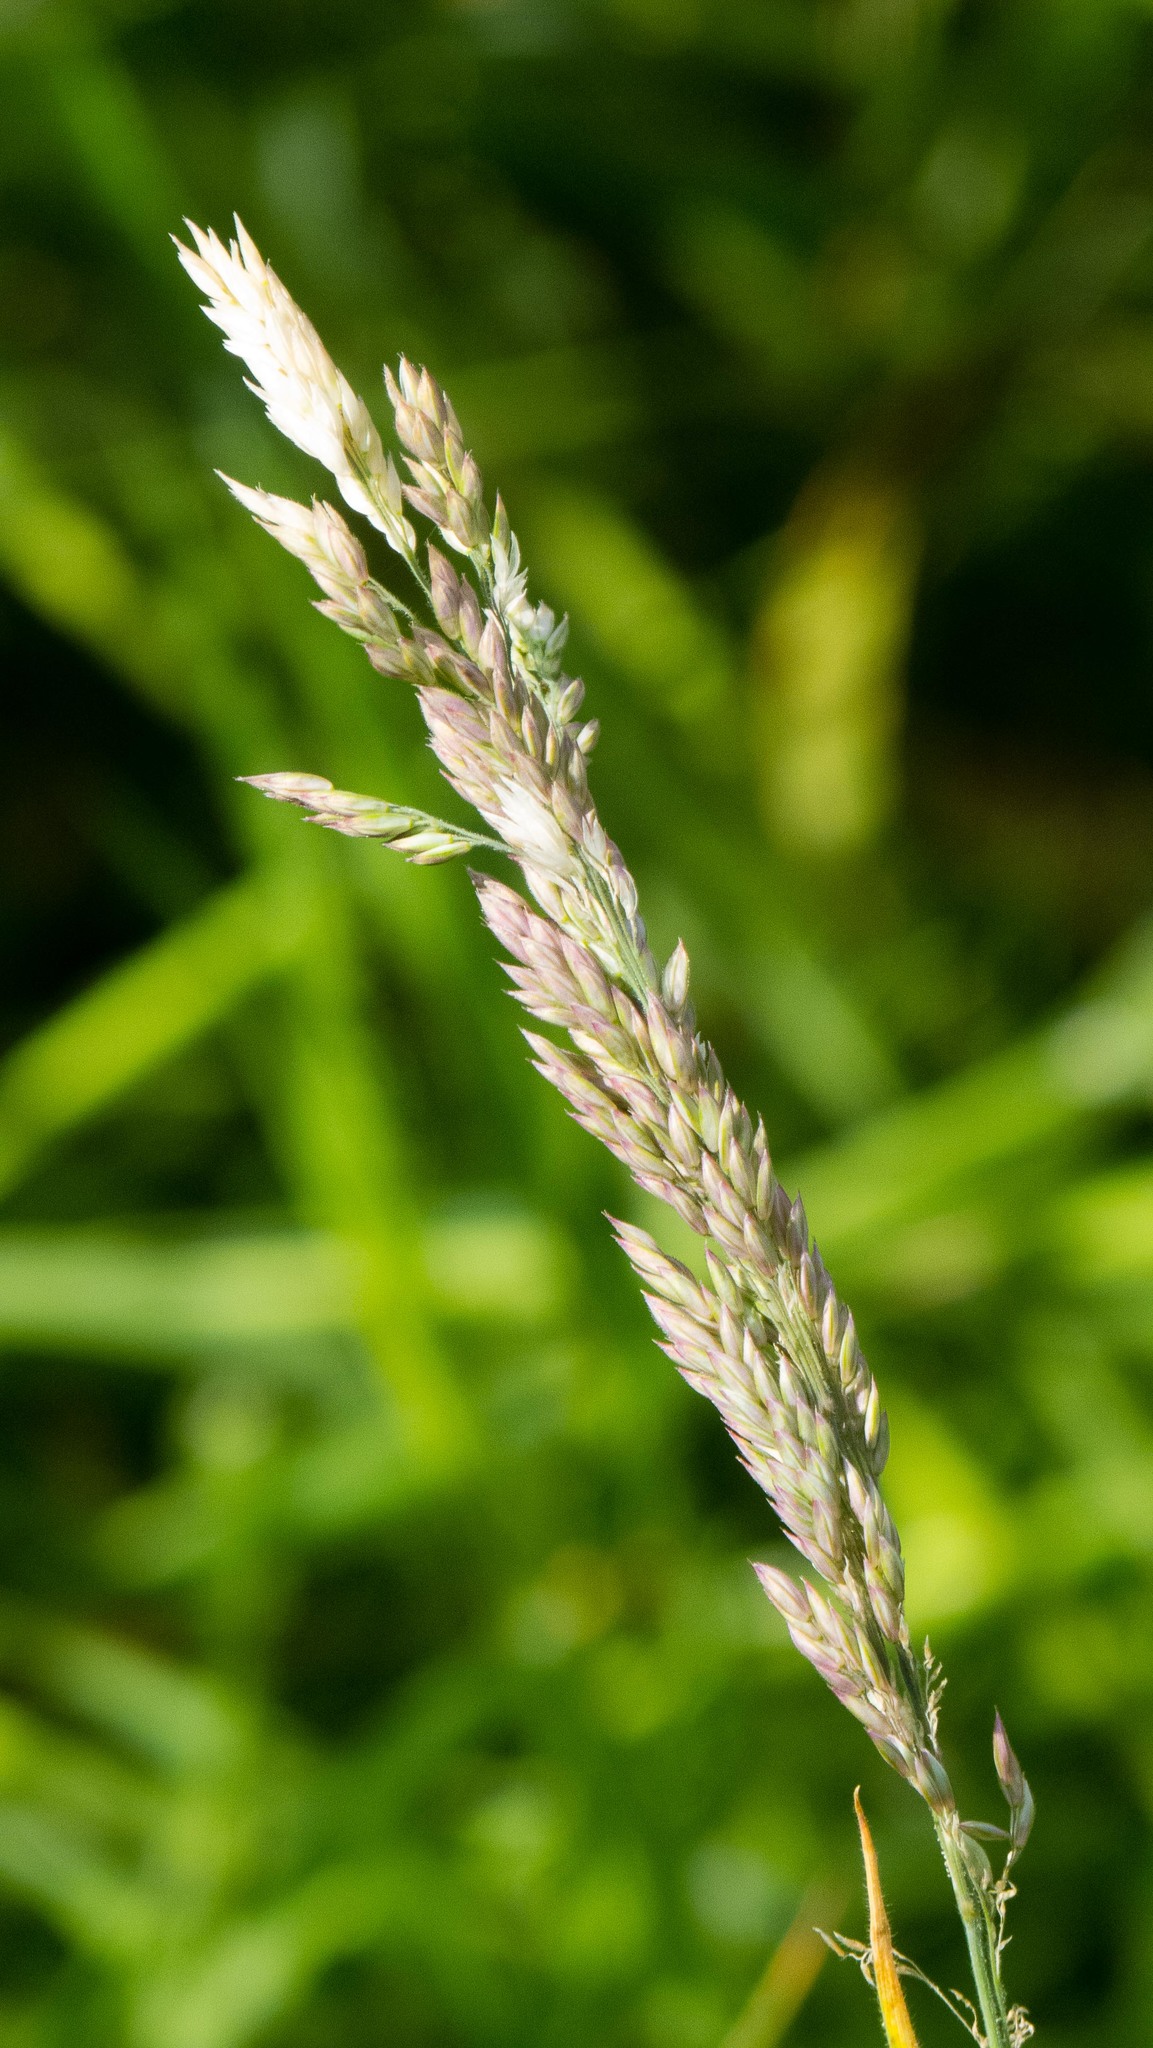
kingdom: Plantae
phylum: Tracheophyta
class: Liliopsida
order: Poales
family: Poaceae
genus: Holcus
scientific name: Holcus lanatus
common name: Yorkshire-fog
